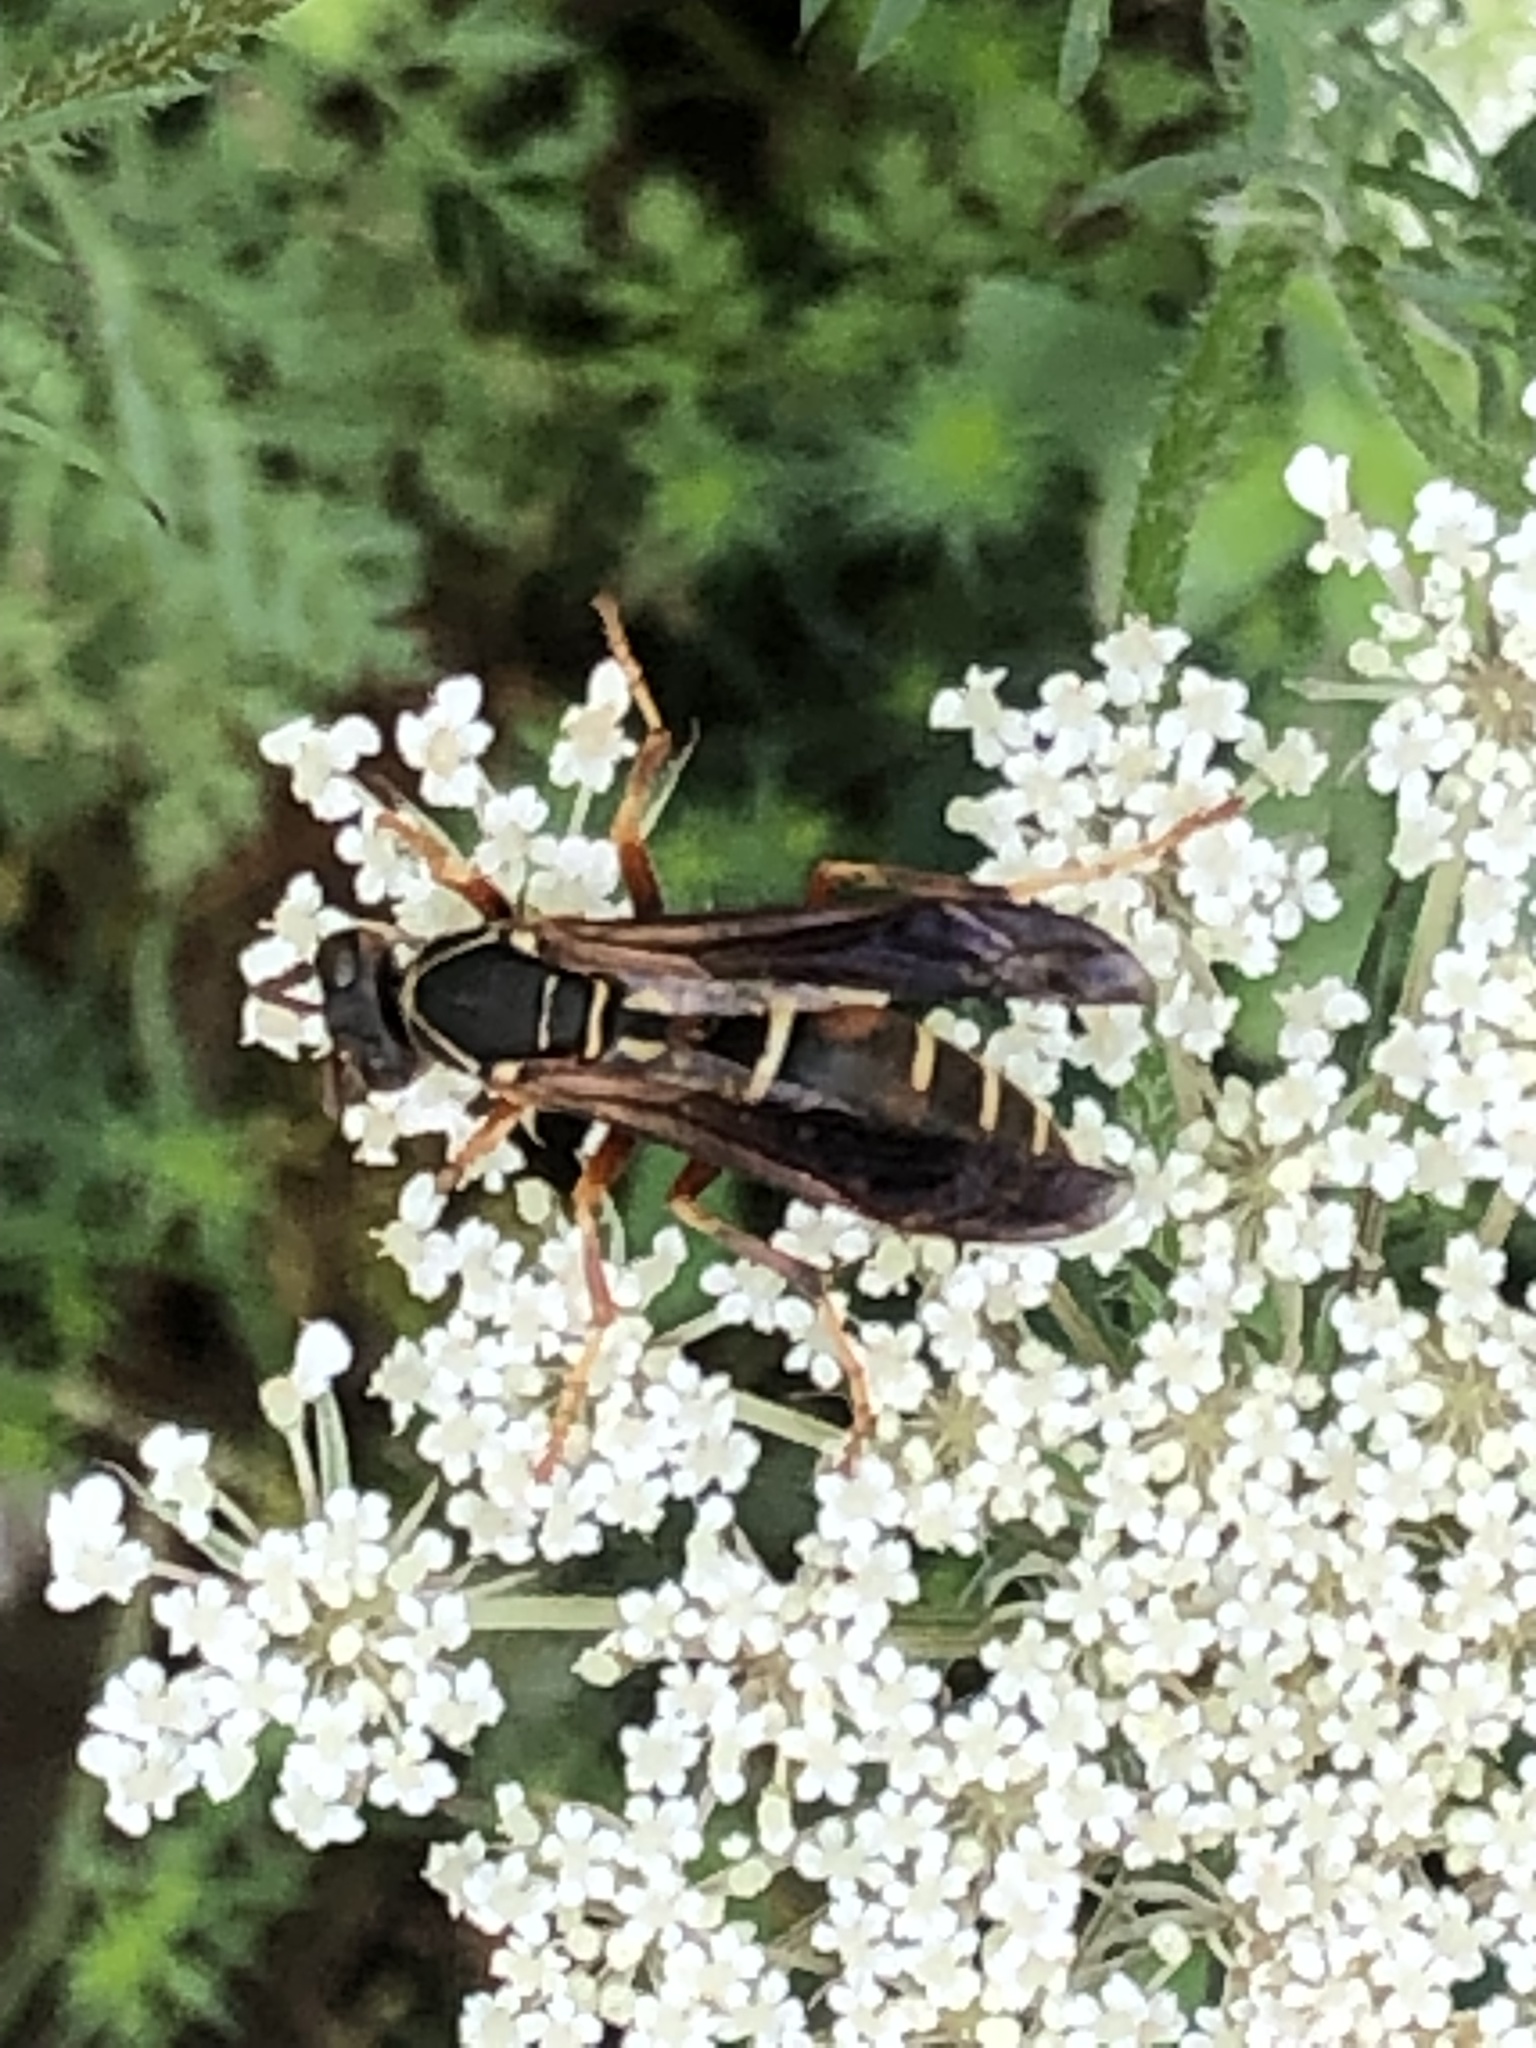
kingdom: Animalia
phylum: Arthropoda
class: Insecta
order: Hymenoptera
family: Eumenidae
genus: Polistes
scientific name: Polistes fuscatus
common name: Dark paper wasp
